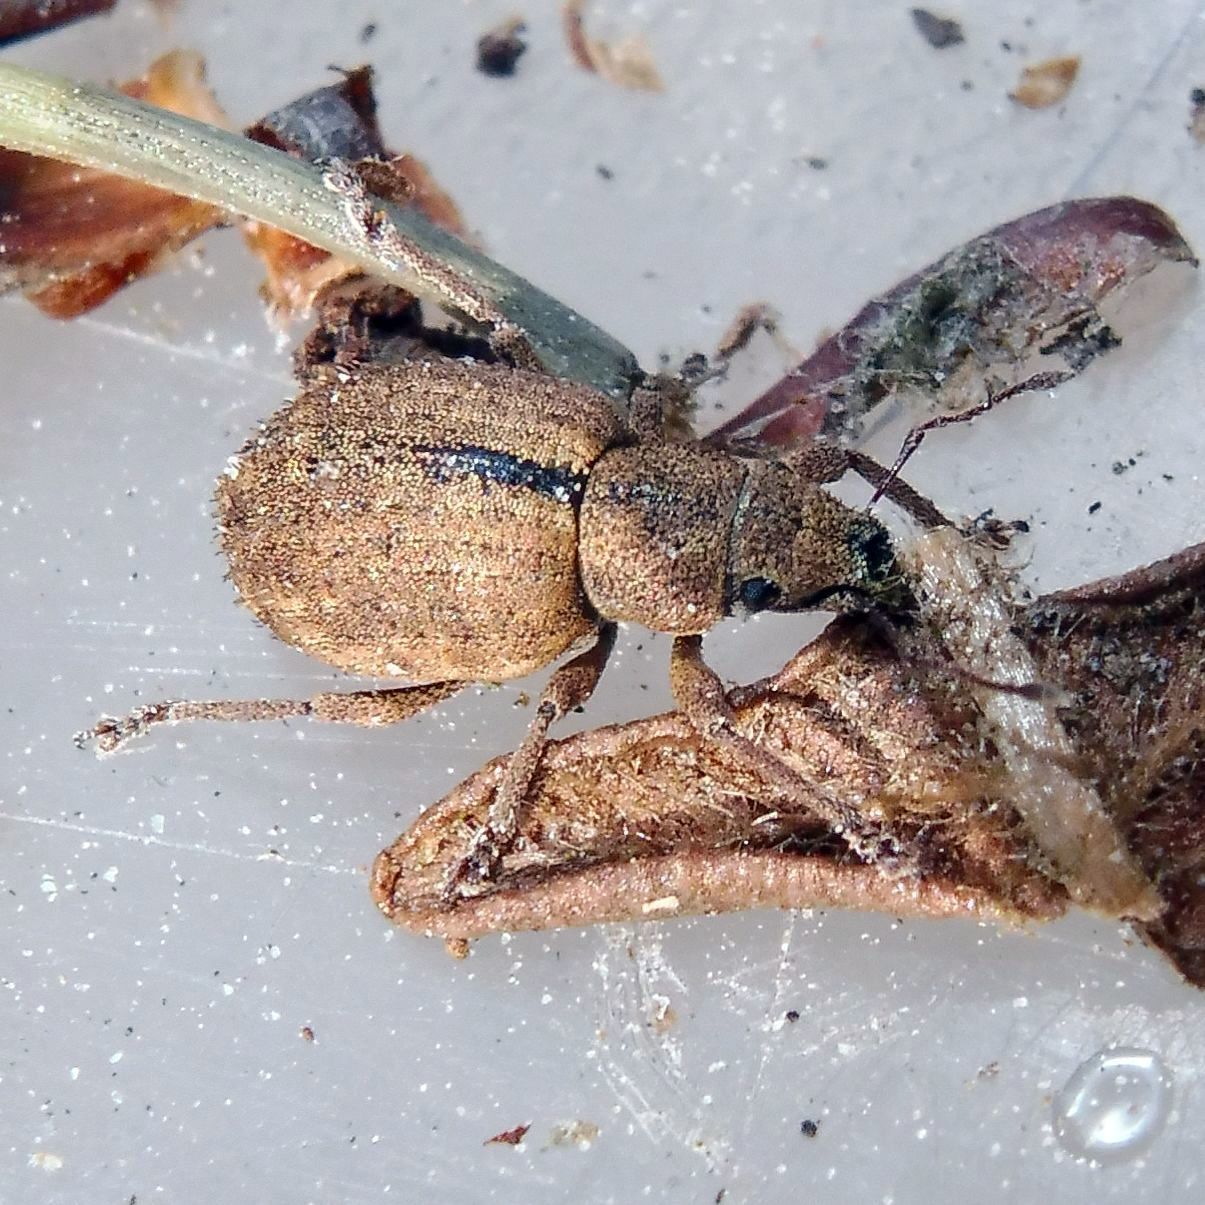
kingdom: Animalia
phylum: Arthropoda
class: Insecta
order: Coleoptera
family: Curculionidae
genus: Strophosoma
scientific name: Strophosoma melanogrammum
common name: Weevil
